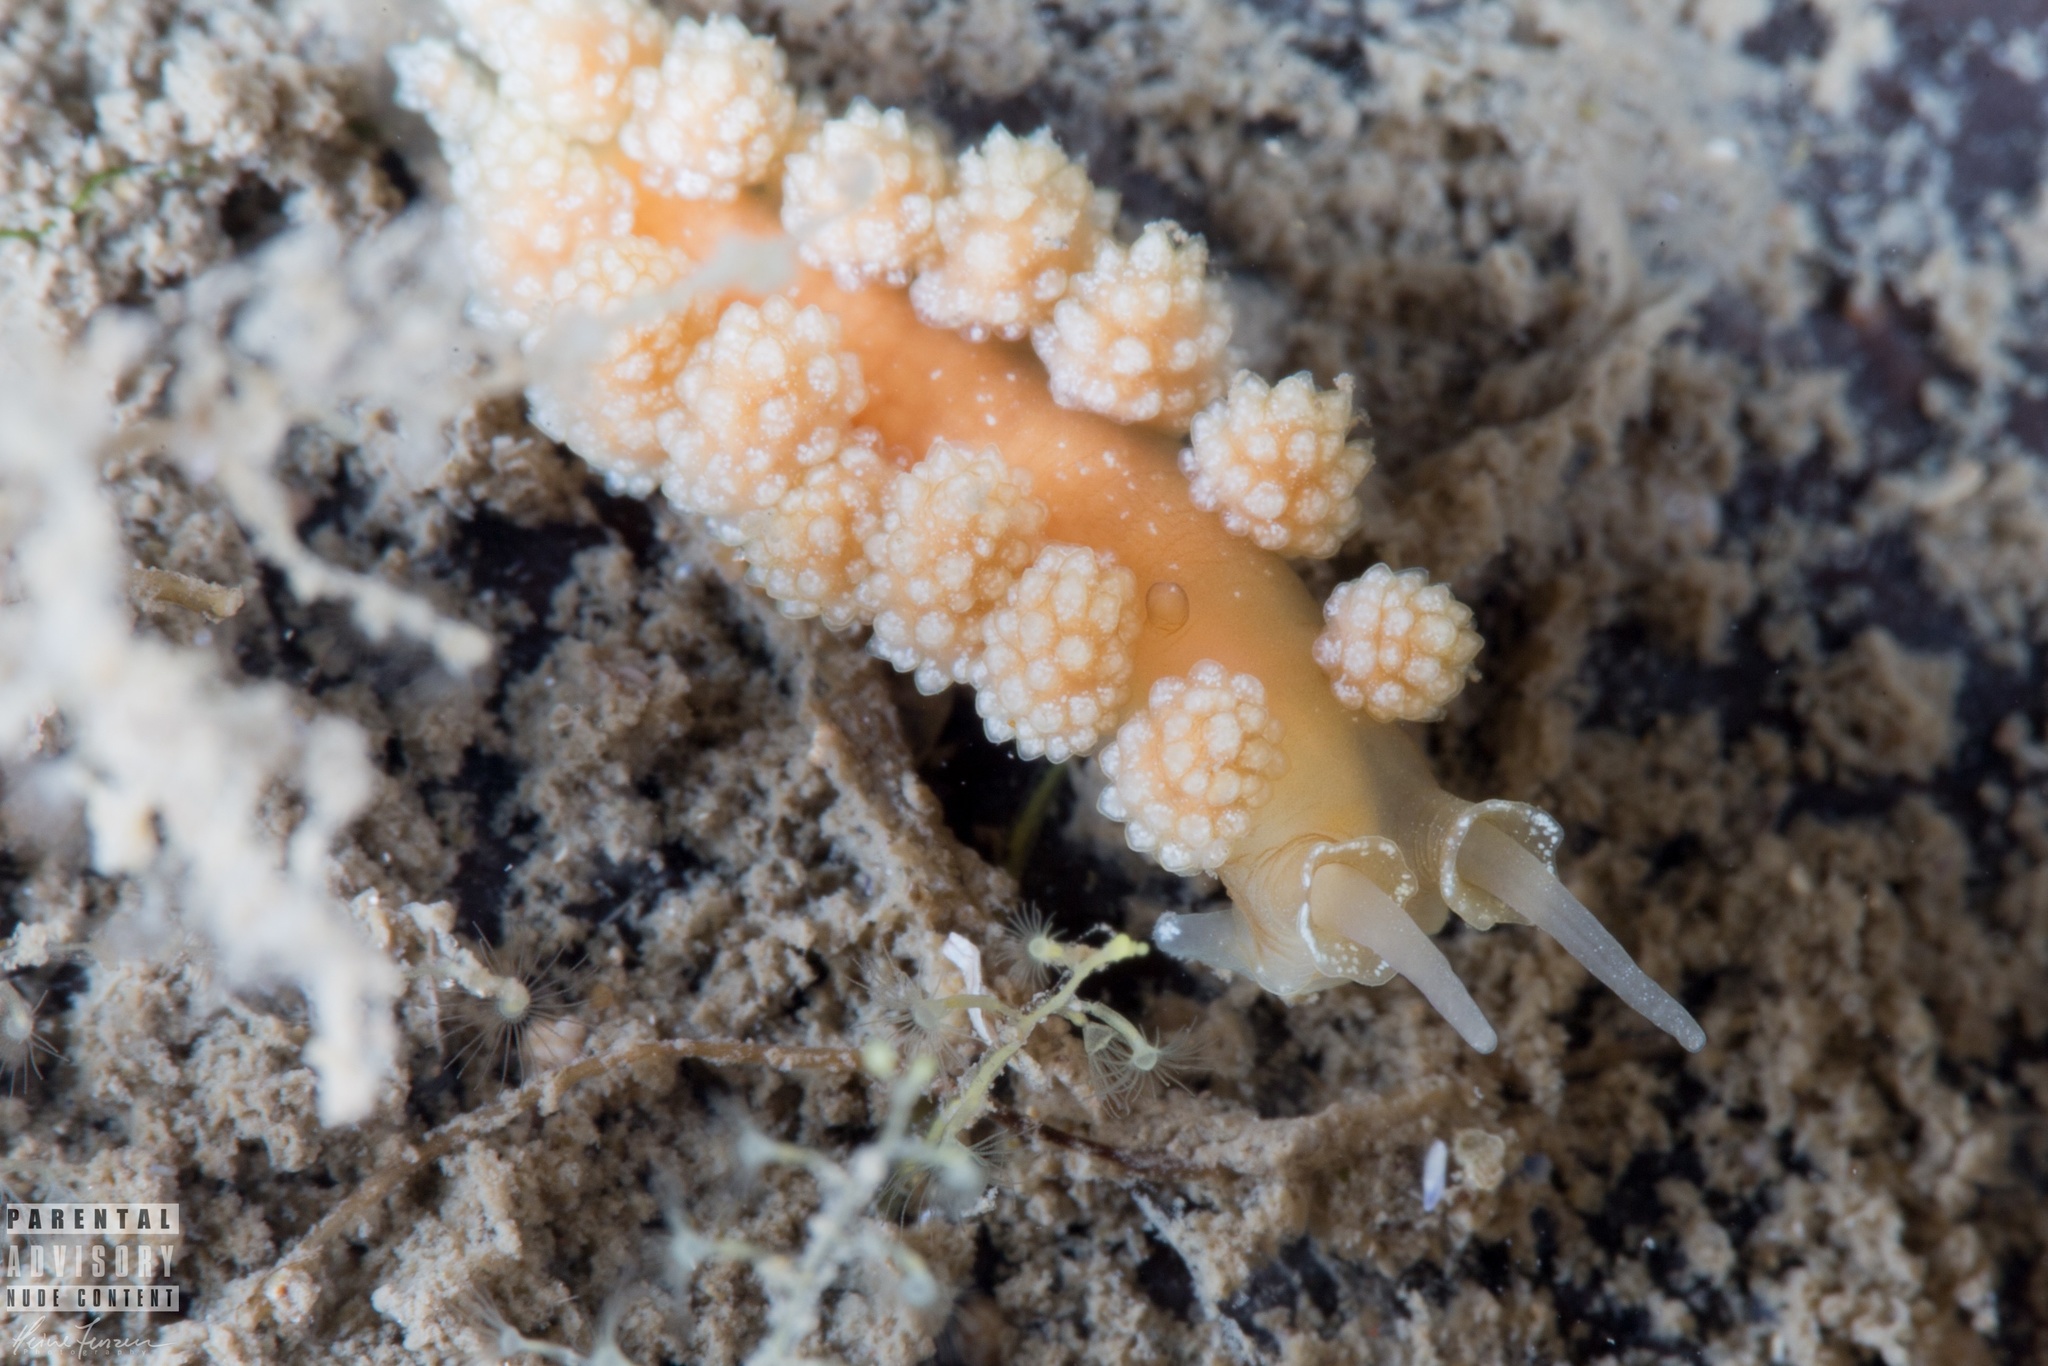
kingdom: Animalia
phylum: Mollusca
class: Gastropoda
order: Nudibranchia
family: Dotidae
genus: Doto
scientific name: Doto fragilis
